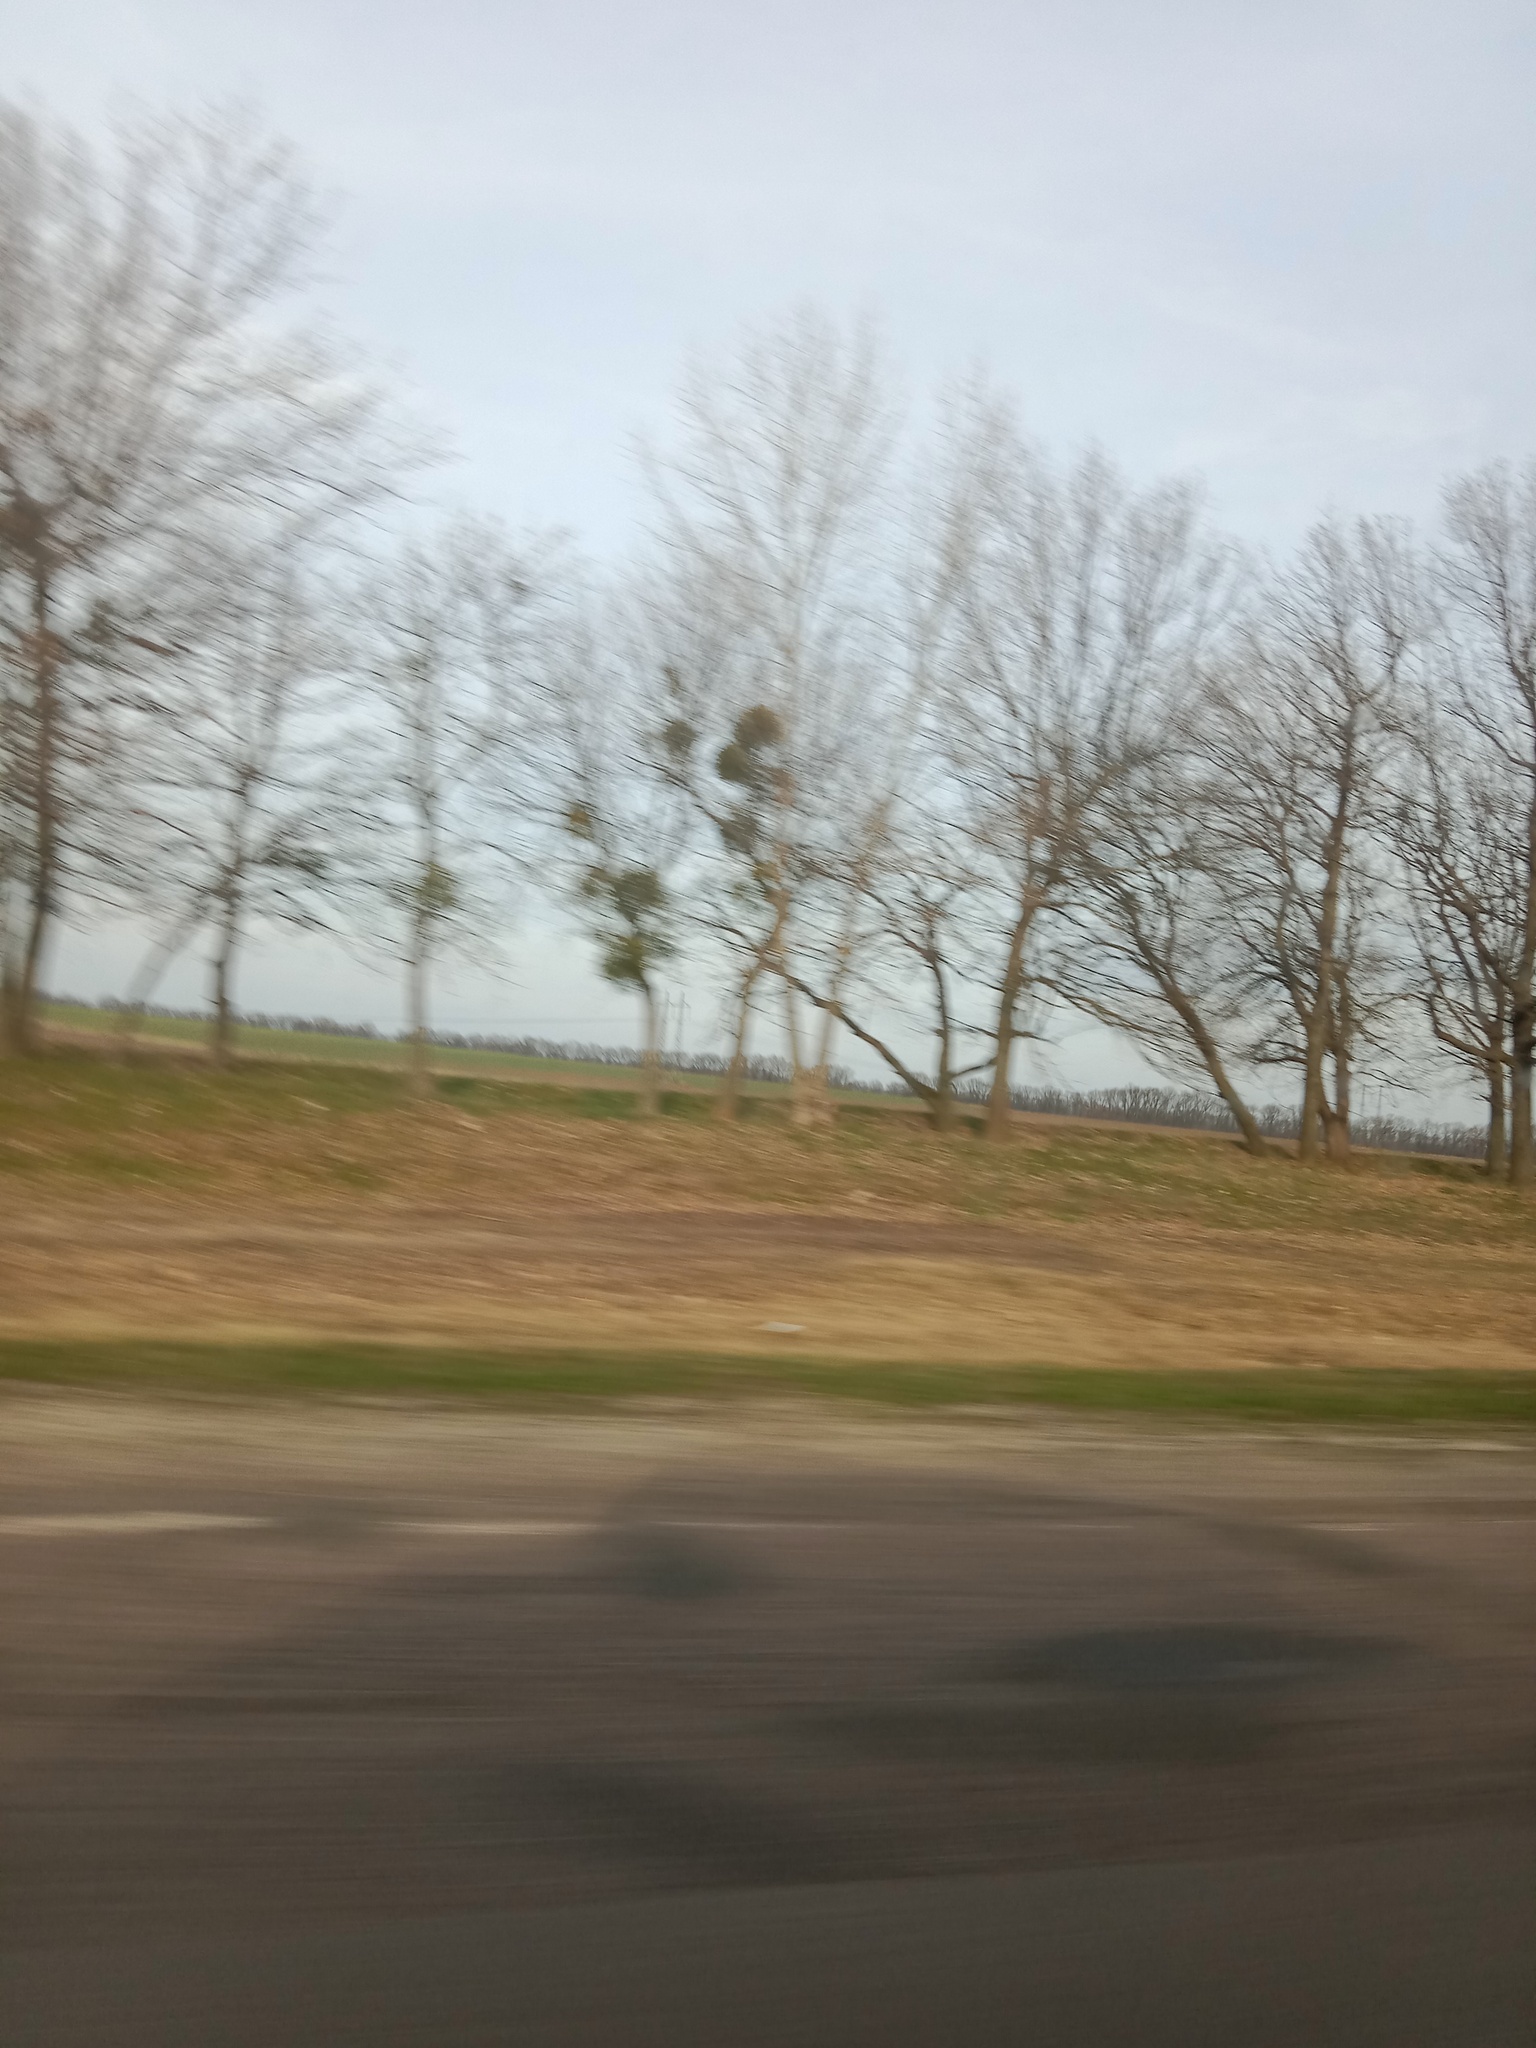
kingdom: Plantae
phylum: Tracheophyta
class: Magnoliopsida
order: Santalales
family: Viscaceae
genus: Viscum
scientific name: Viscum album
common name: Mistletoe
